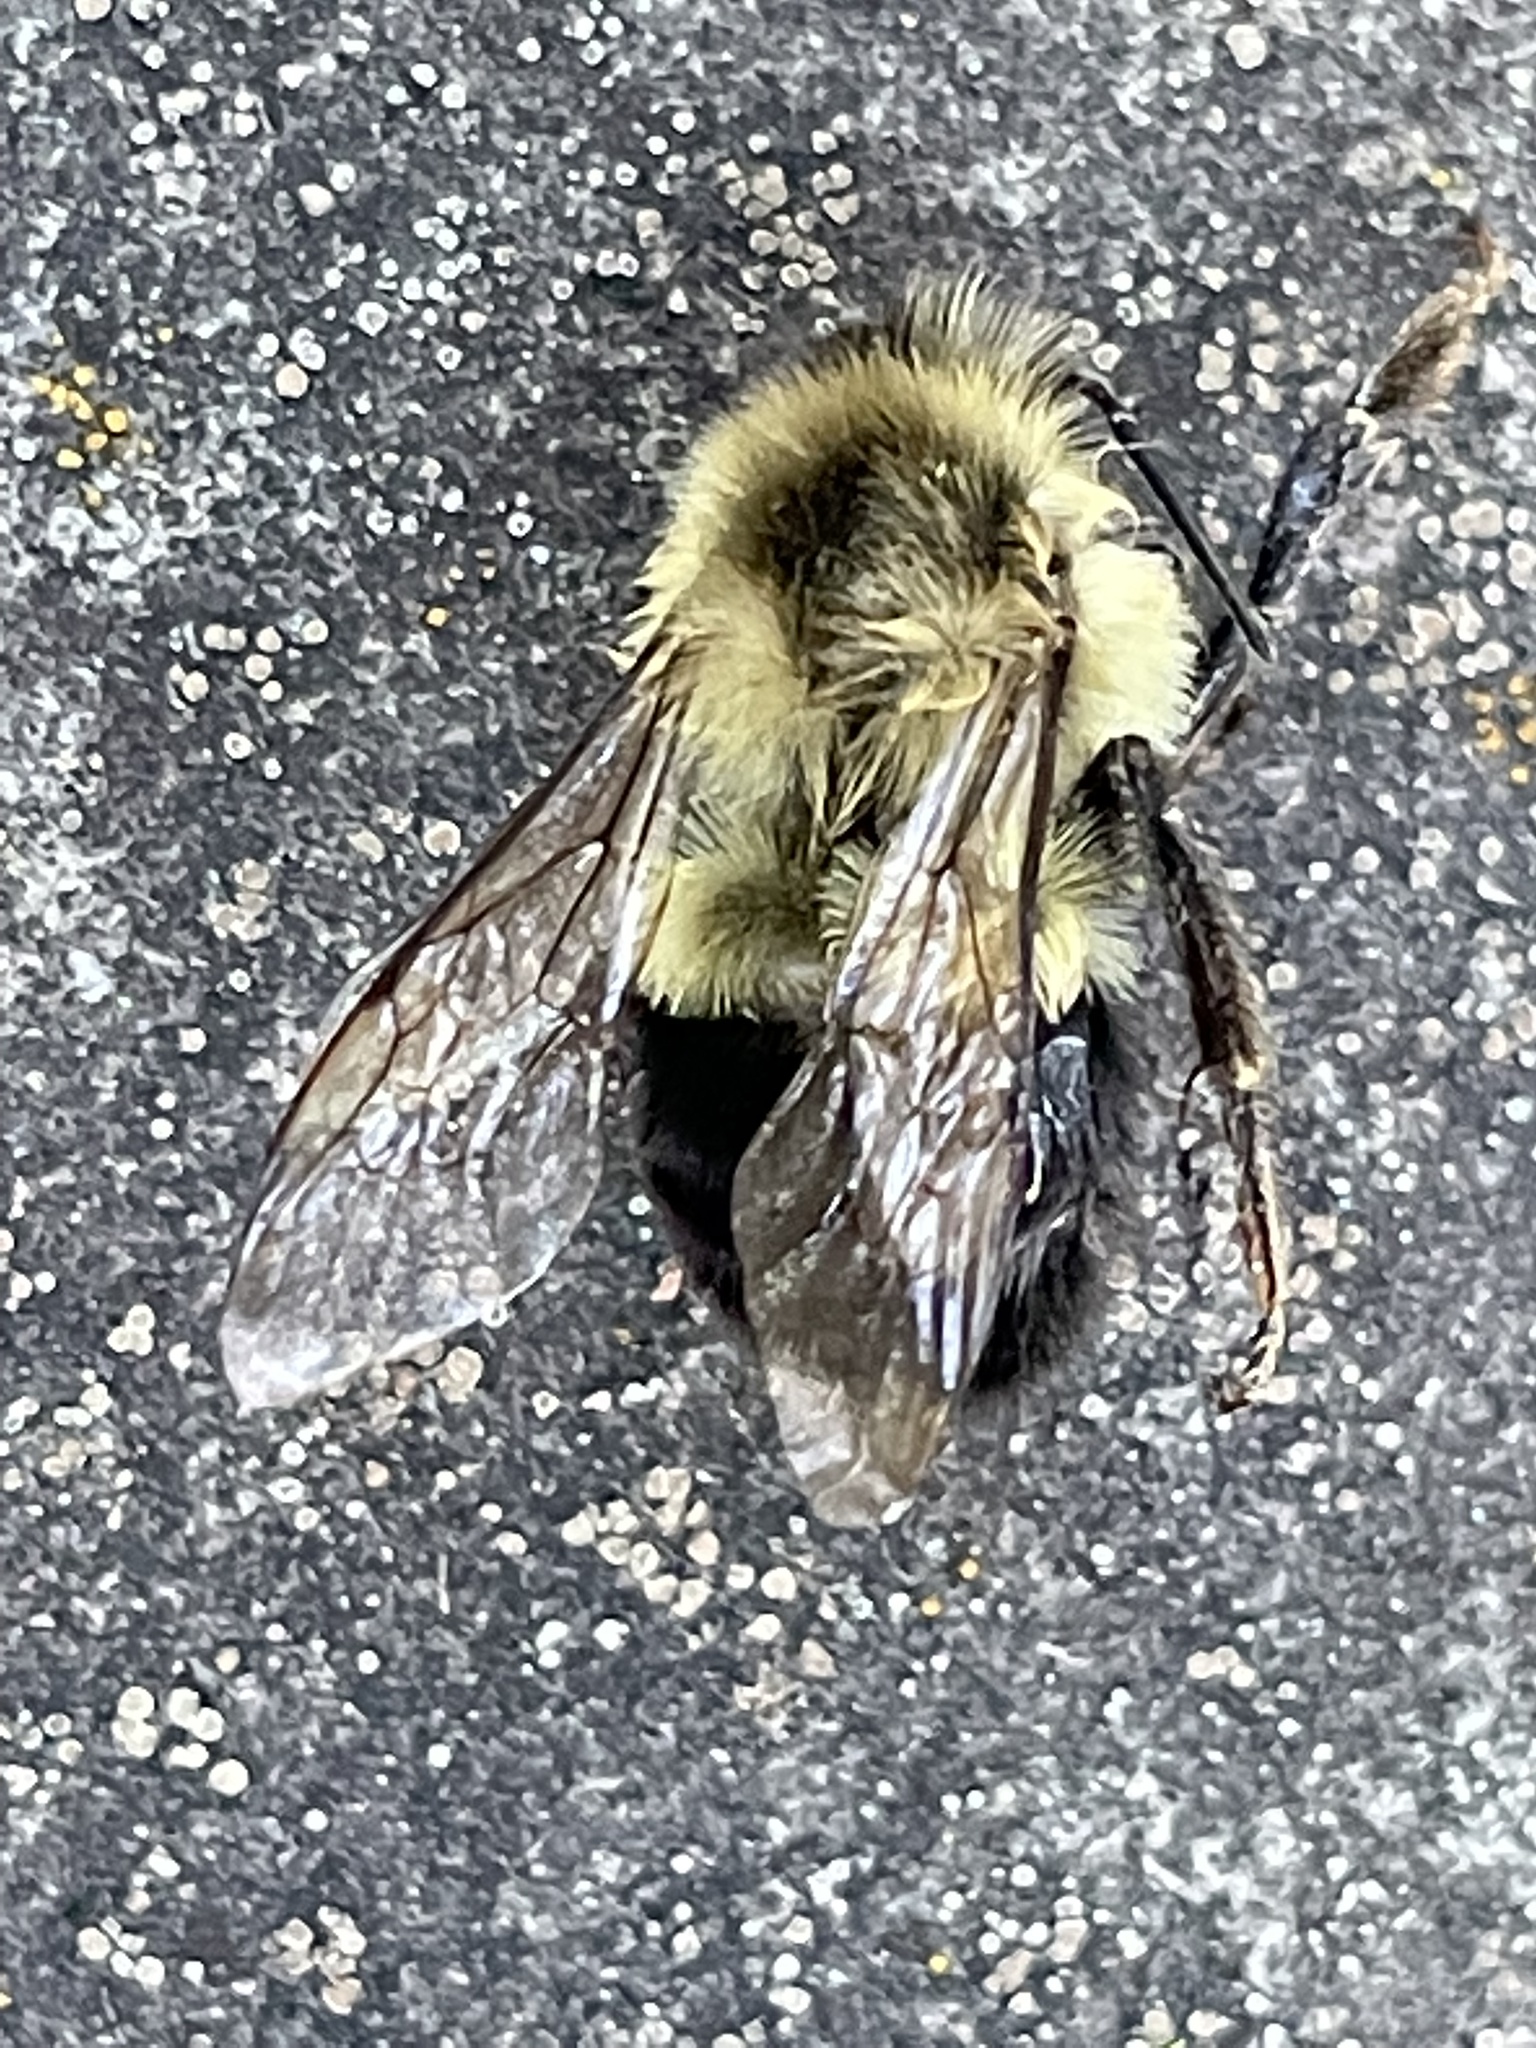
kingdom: Animalia
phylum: Arthropoda
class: Insecta
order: Hymenoptera
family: Apidae
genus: Bombus
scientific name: Bombus impatiens
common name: Common eastern bumble bee
